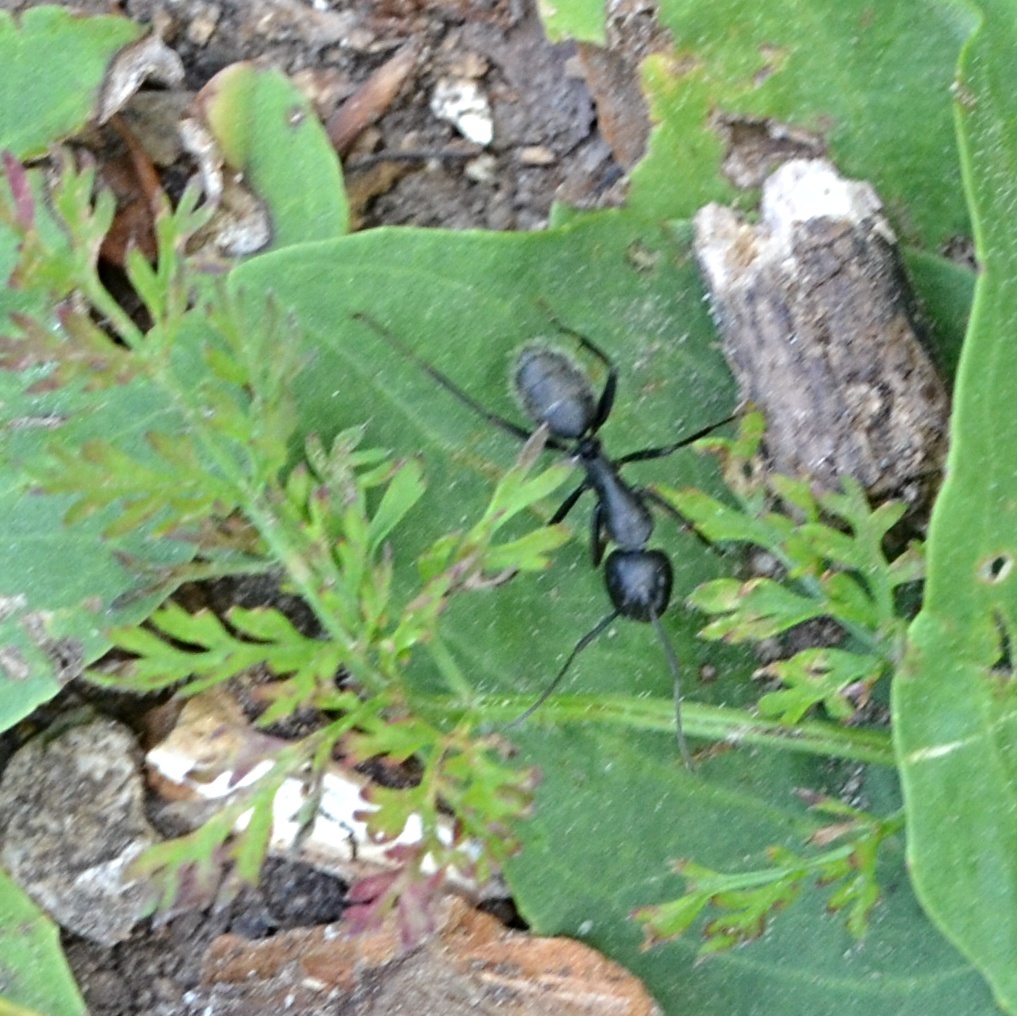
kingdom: Animalia
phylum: Arthropoda
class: Insecta
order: Hymenoptera
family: Formicidae
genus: Camponotus
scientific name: Camponotus vagus
